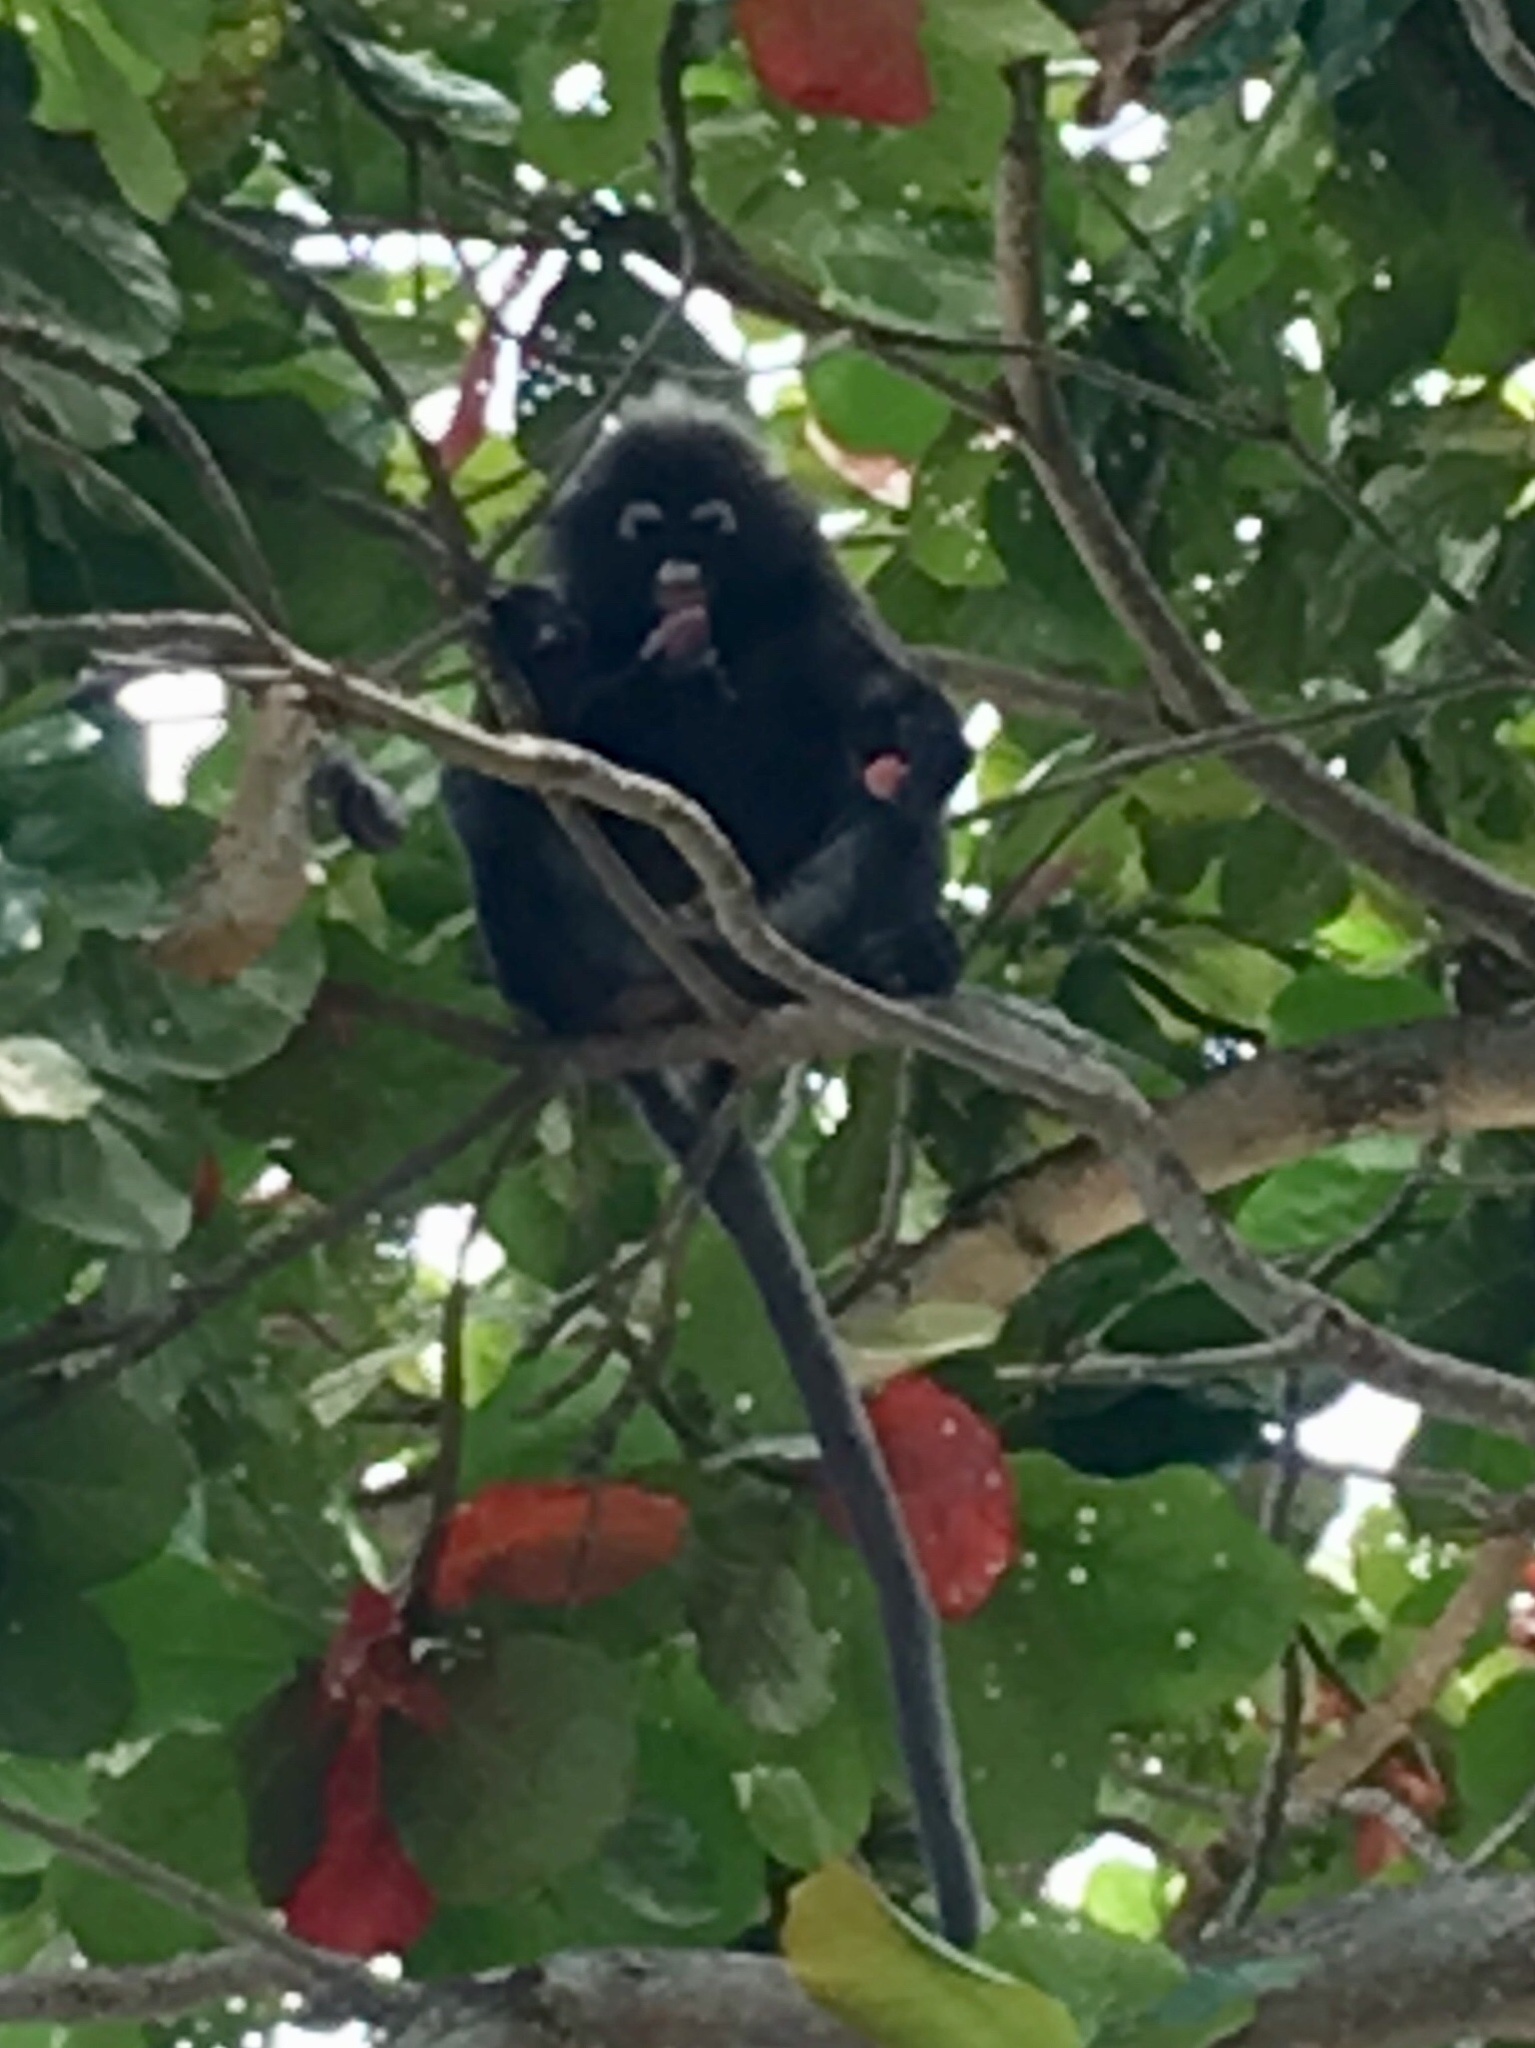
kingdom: Animalia
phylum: Chordata
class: Mammalia
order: Primates
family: Cercopithecidae
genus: Trachypithecus
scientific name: Trachypithecus obscurus
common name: Dusky leaf-monkey
